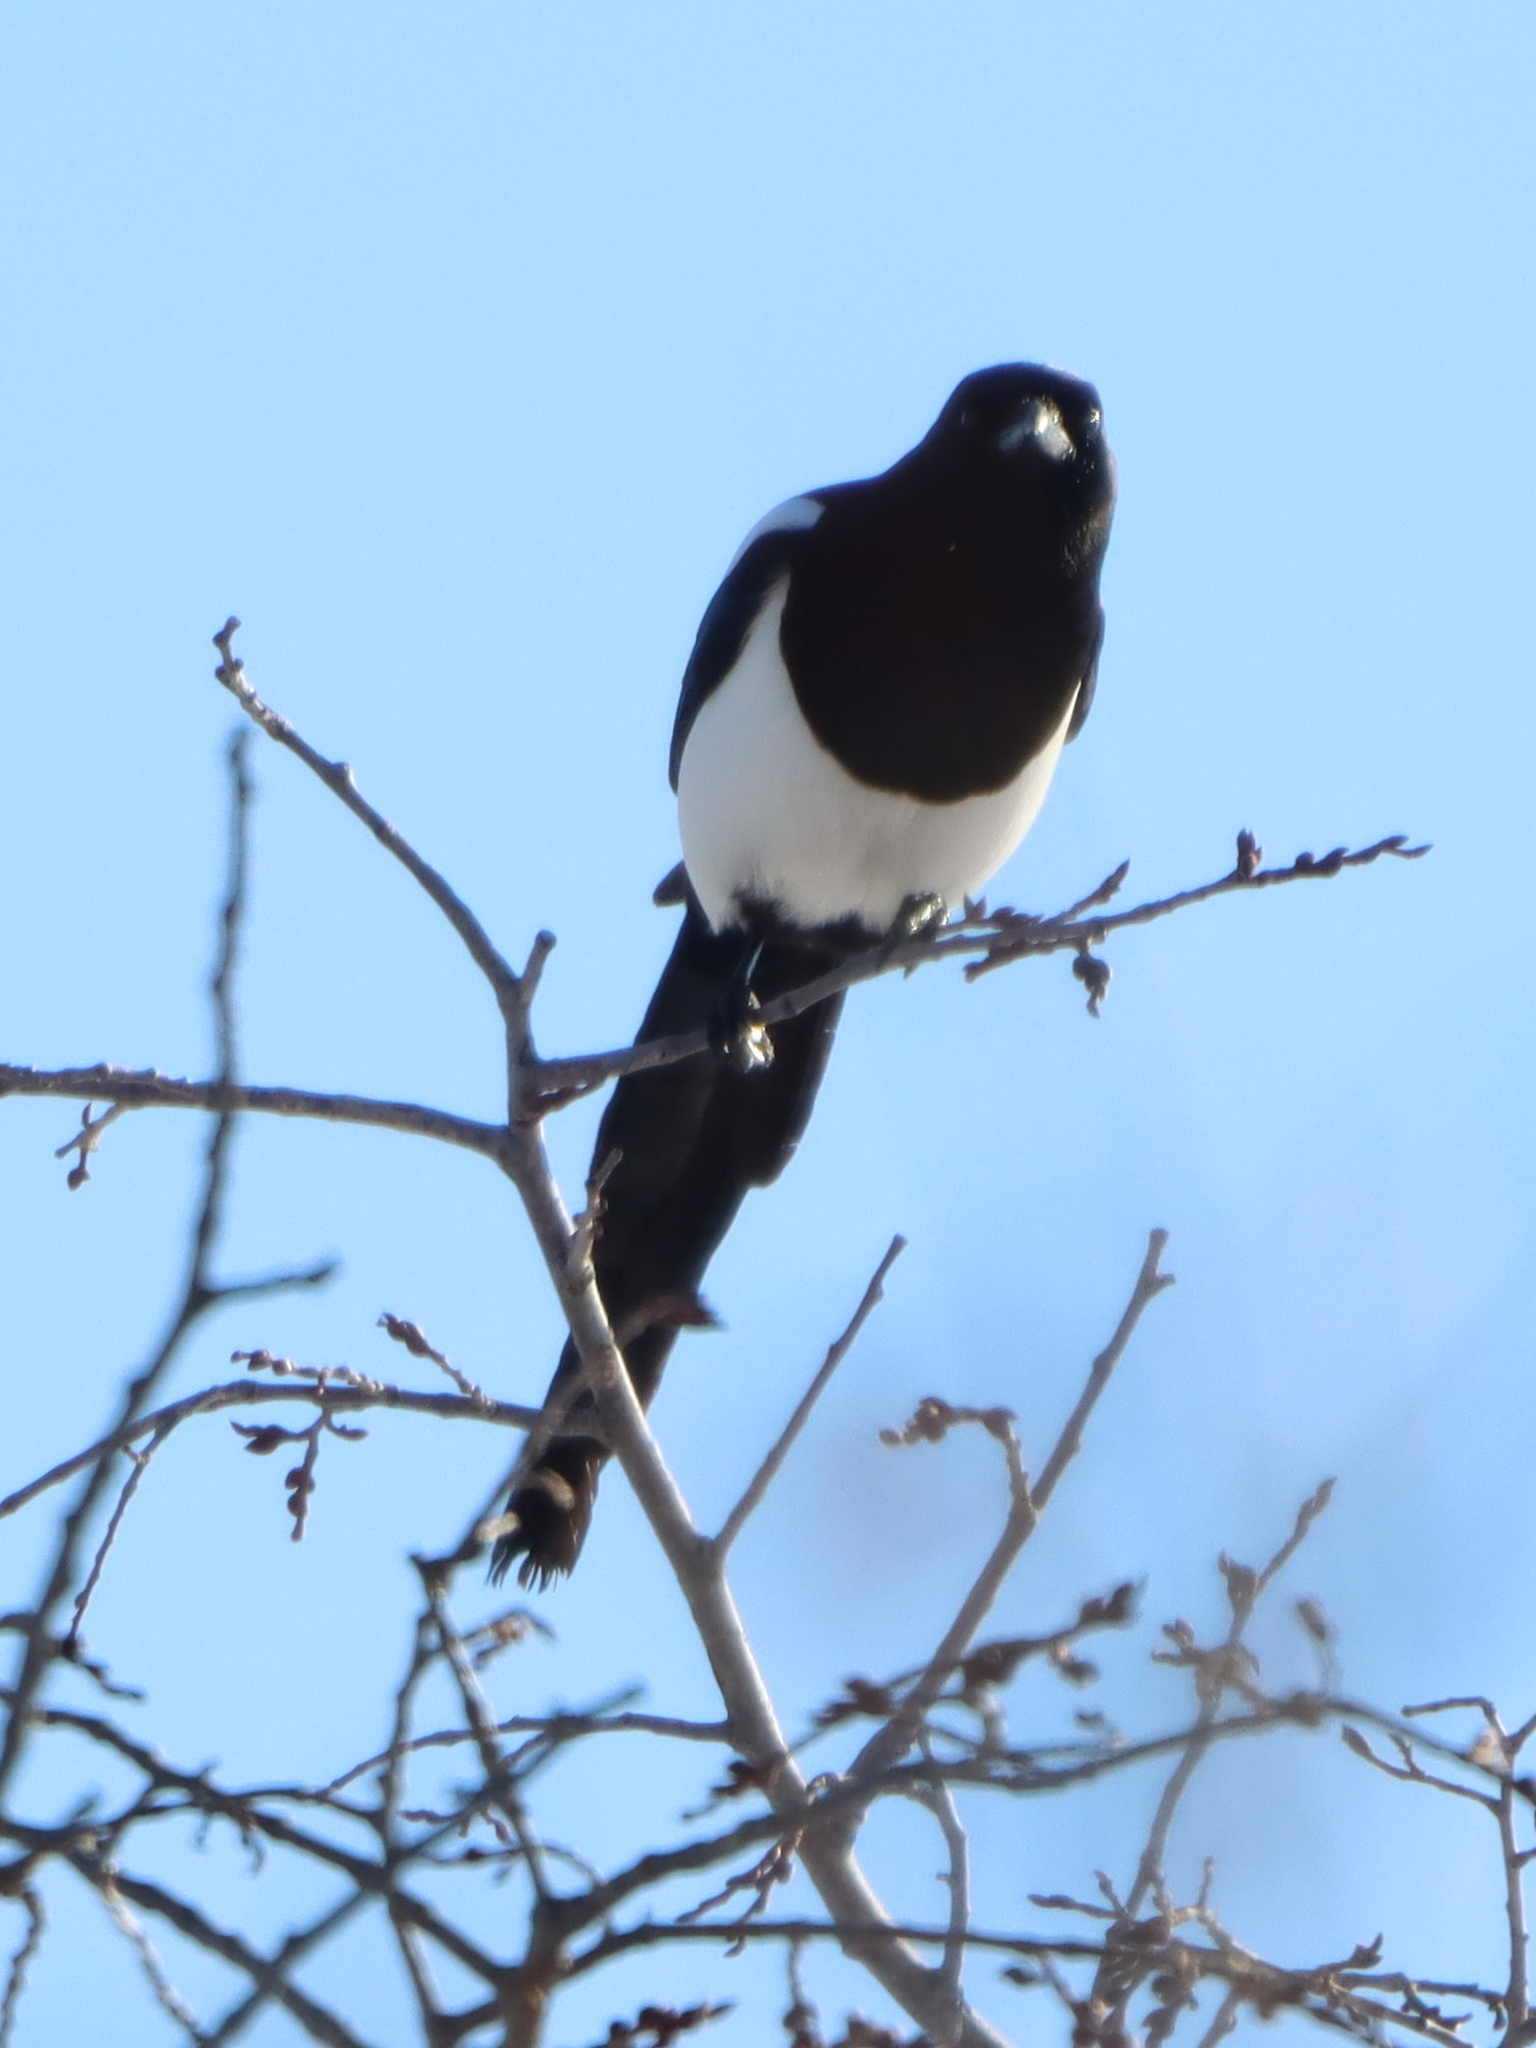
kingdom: Animalia
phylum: Chordata
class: Aves
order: Passeriformes
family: Corvidae
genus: Pica
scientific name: Pica hudsonia
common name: Black-billed magpie
